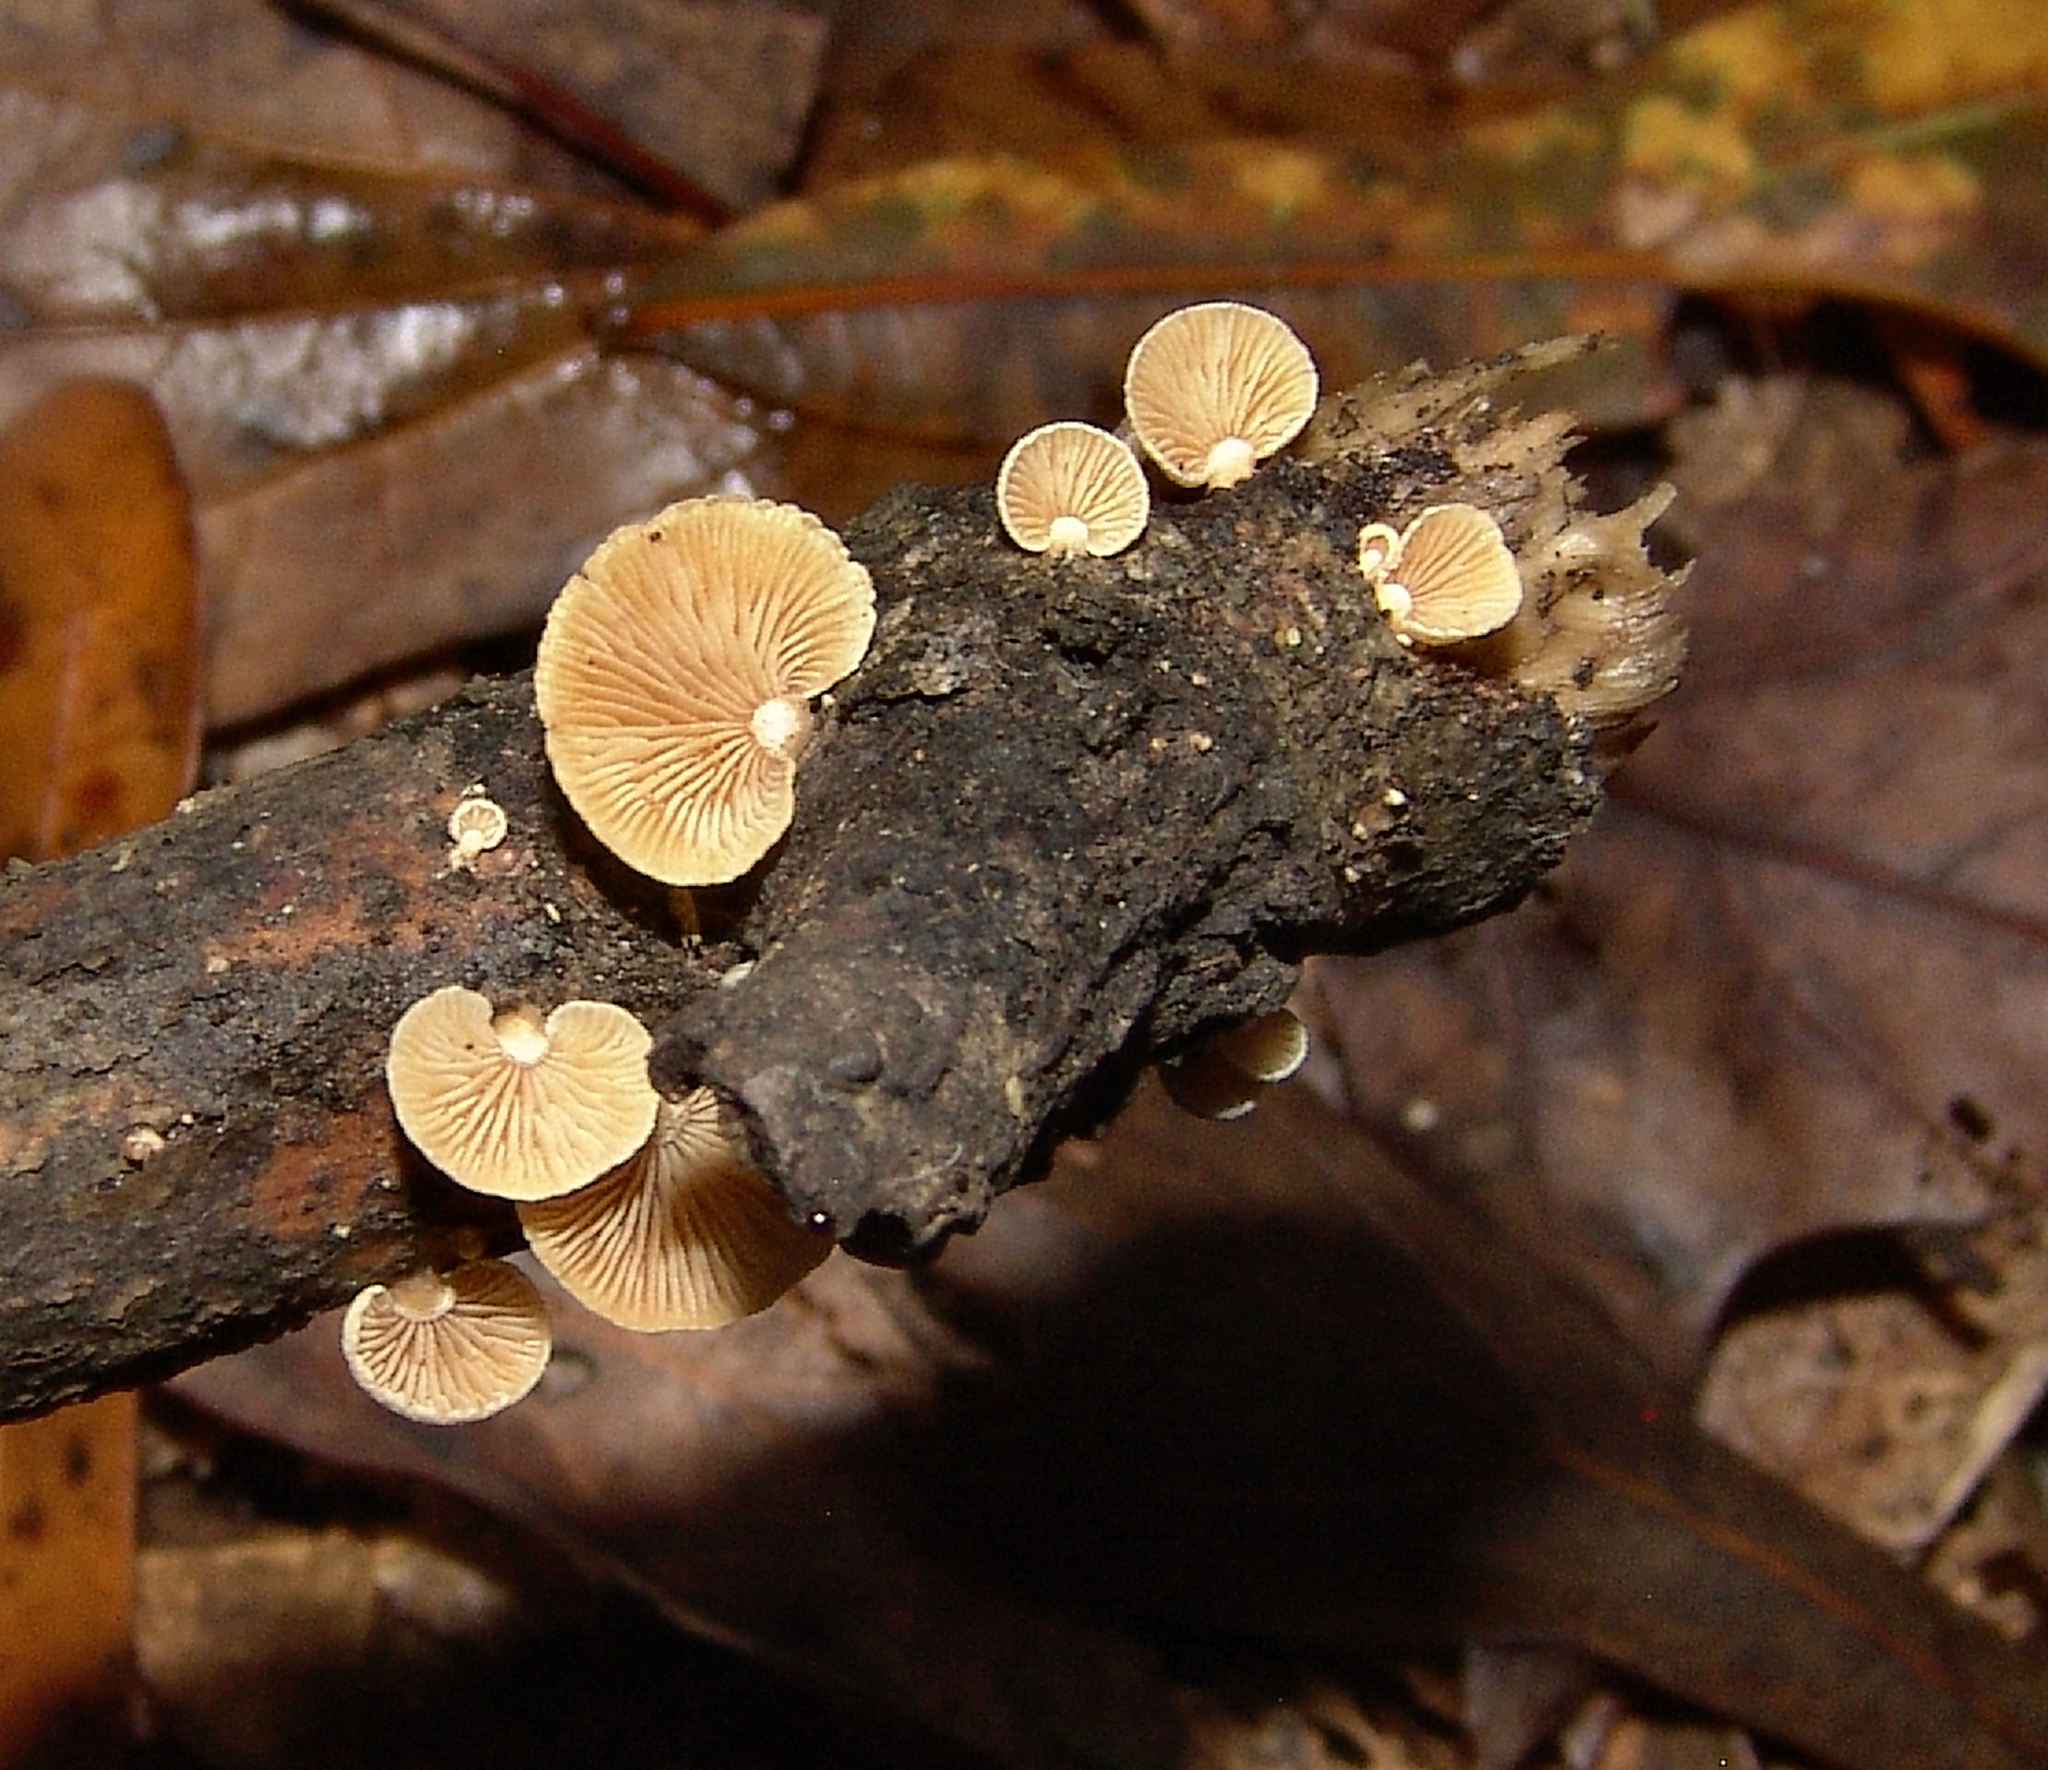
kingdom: Fungi
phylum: Basidiomycota
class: Agaricomycetes
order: Agaricales
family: Mycenaceae
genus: Panellus
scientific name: Panellus stipticus
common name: Bitter oysterling
